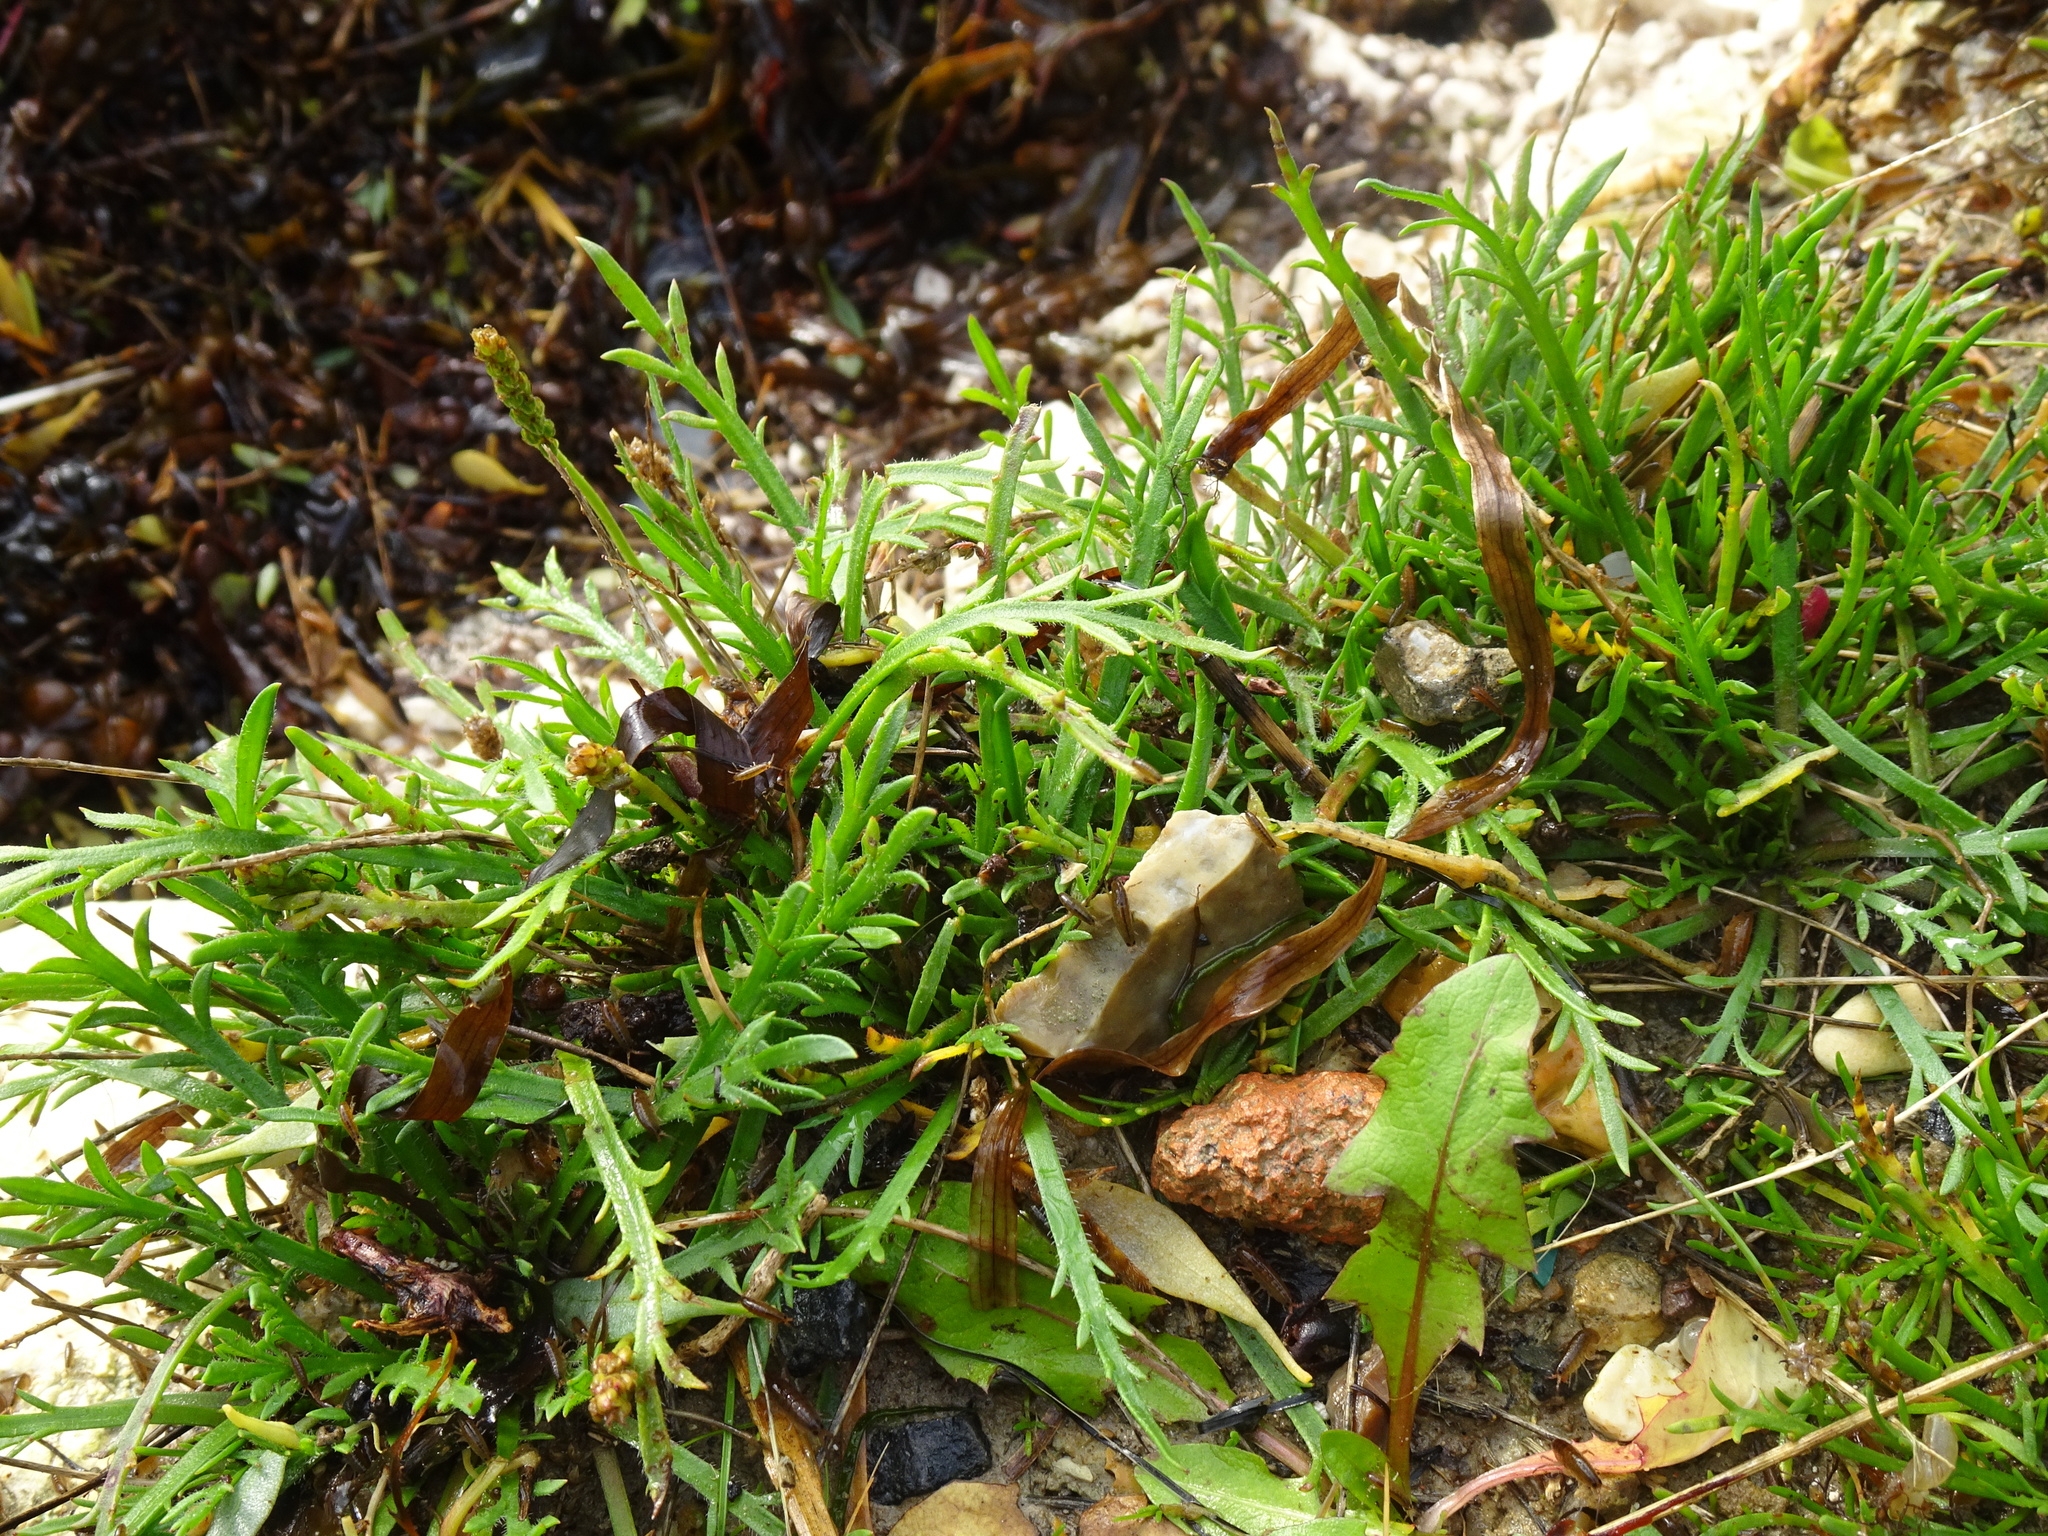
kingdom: Plantae
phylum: Tracheophyta
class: Magnoliopsida
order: Lamiales
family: Plantaginaceae
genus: Plantago
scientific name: Plantago coronopus
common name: Buck's-horn plantain
